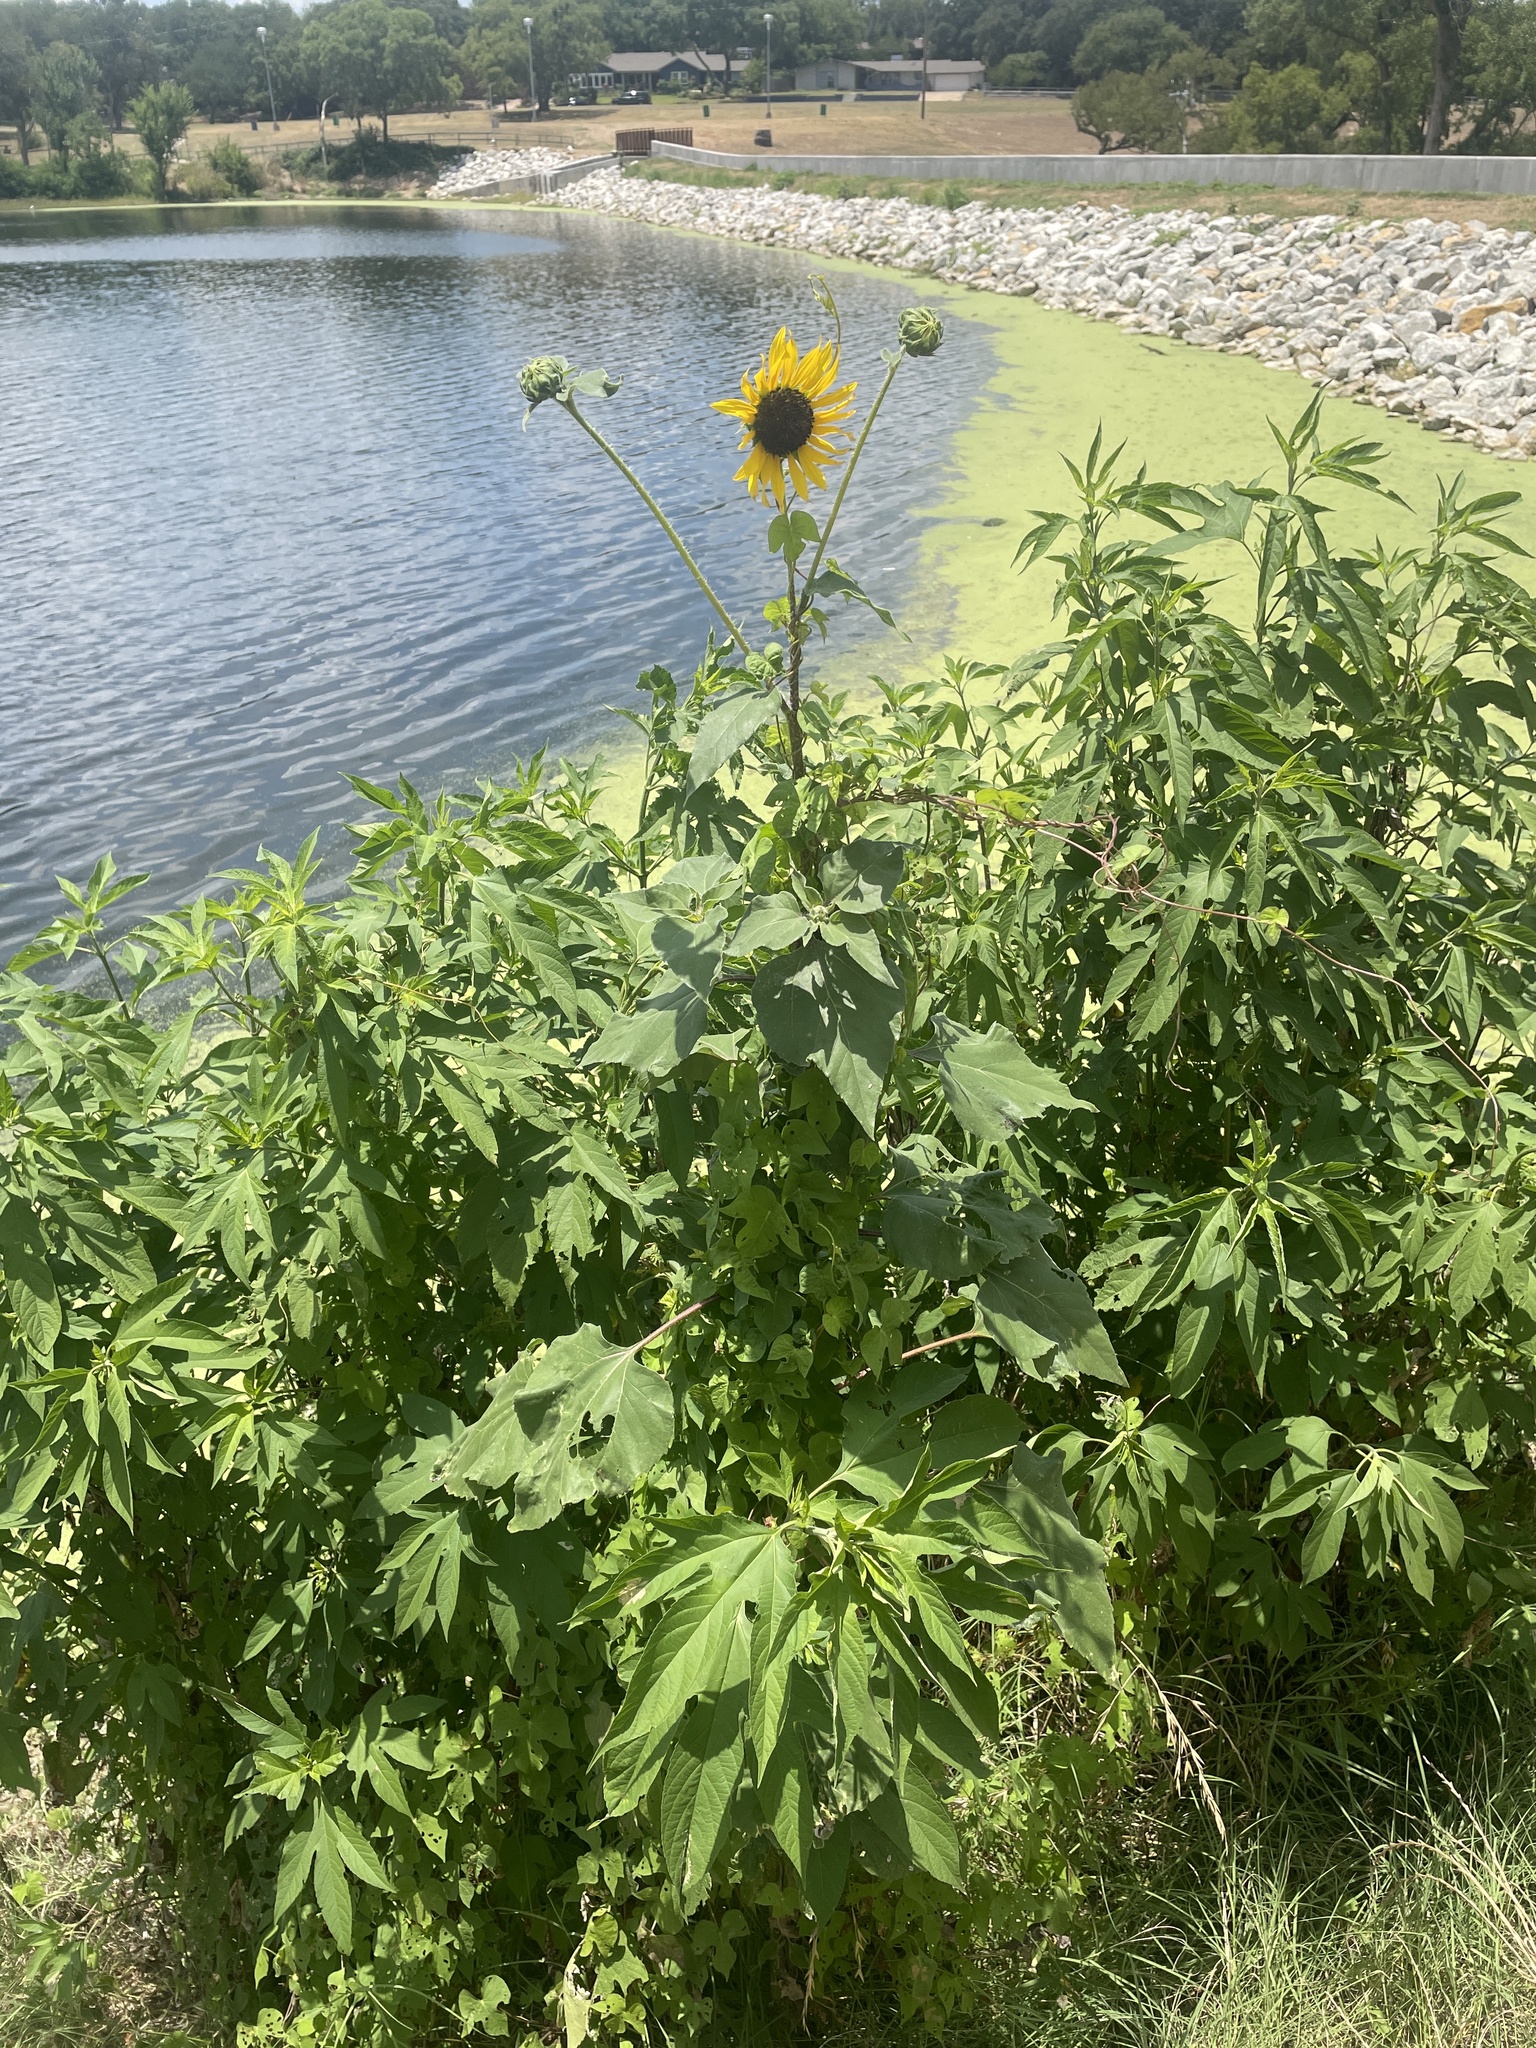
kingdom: Plantae
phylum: Tracheophyta
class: Magnoliopsida
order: Asterales
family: Asteraceae
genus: Helianthus
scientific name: Helianthus annuus
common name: Sunflower
